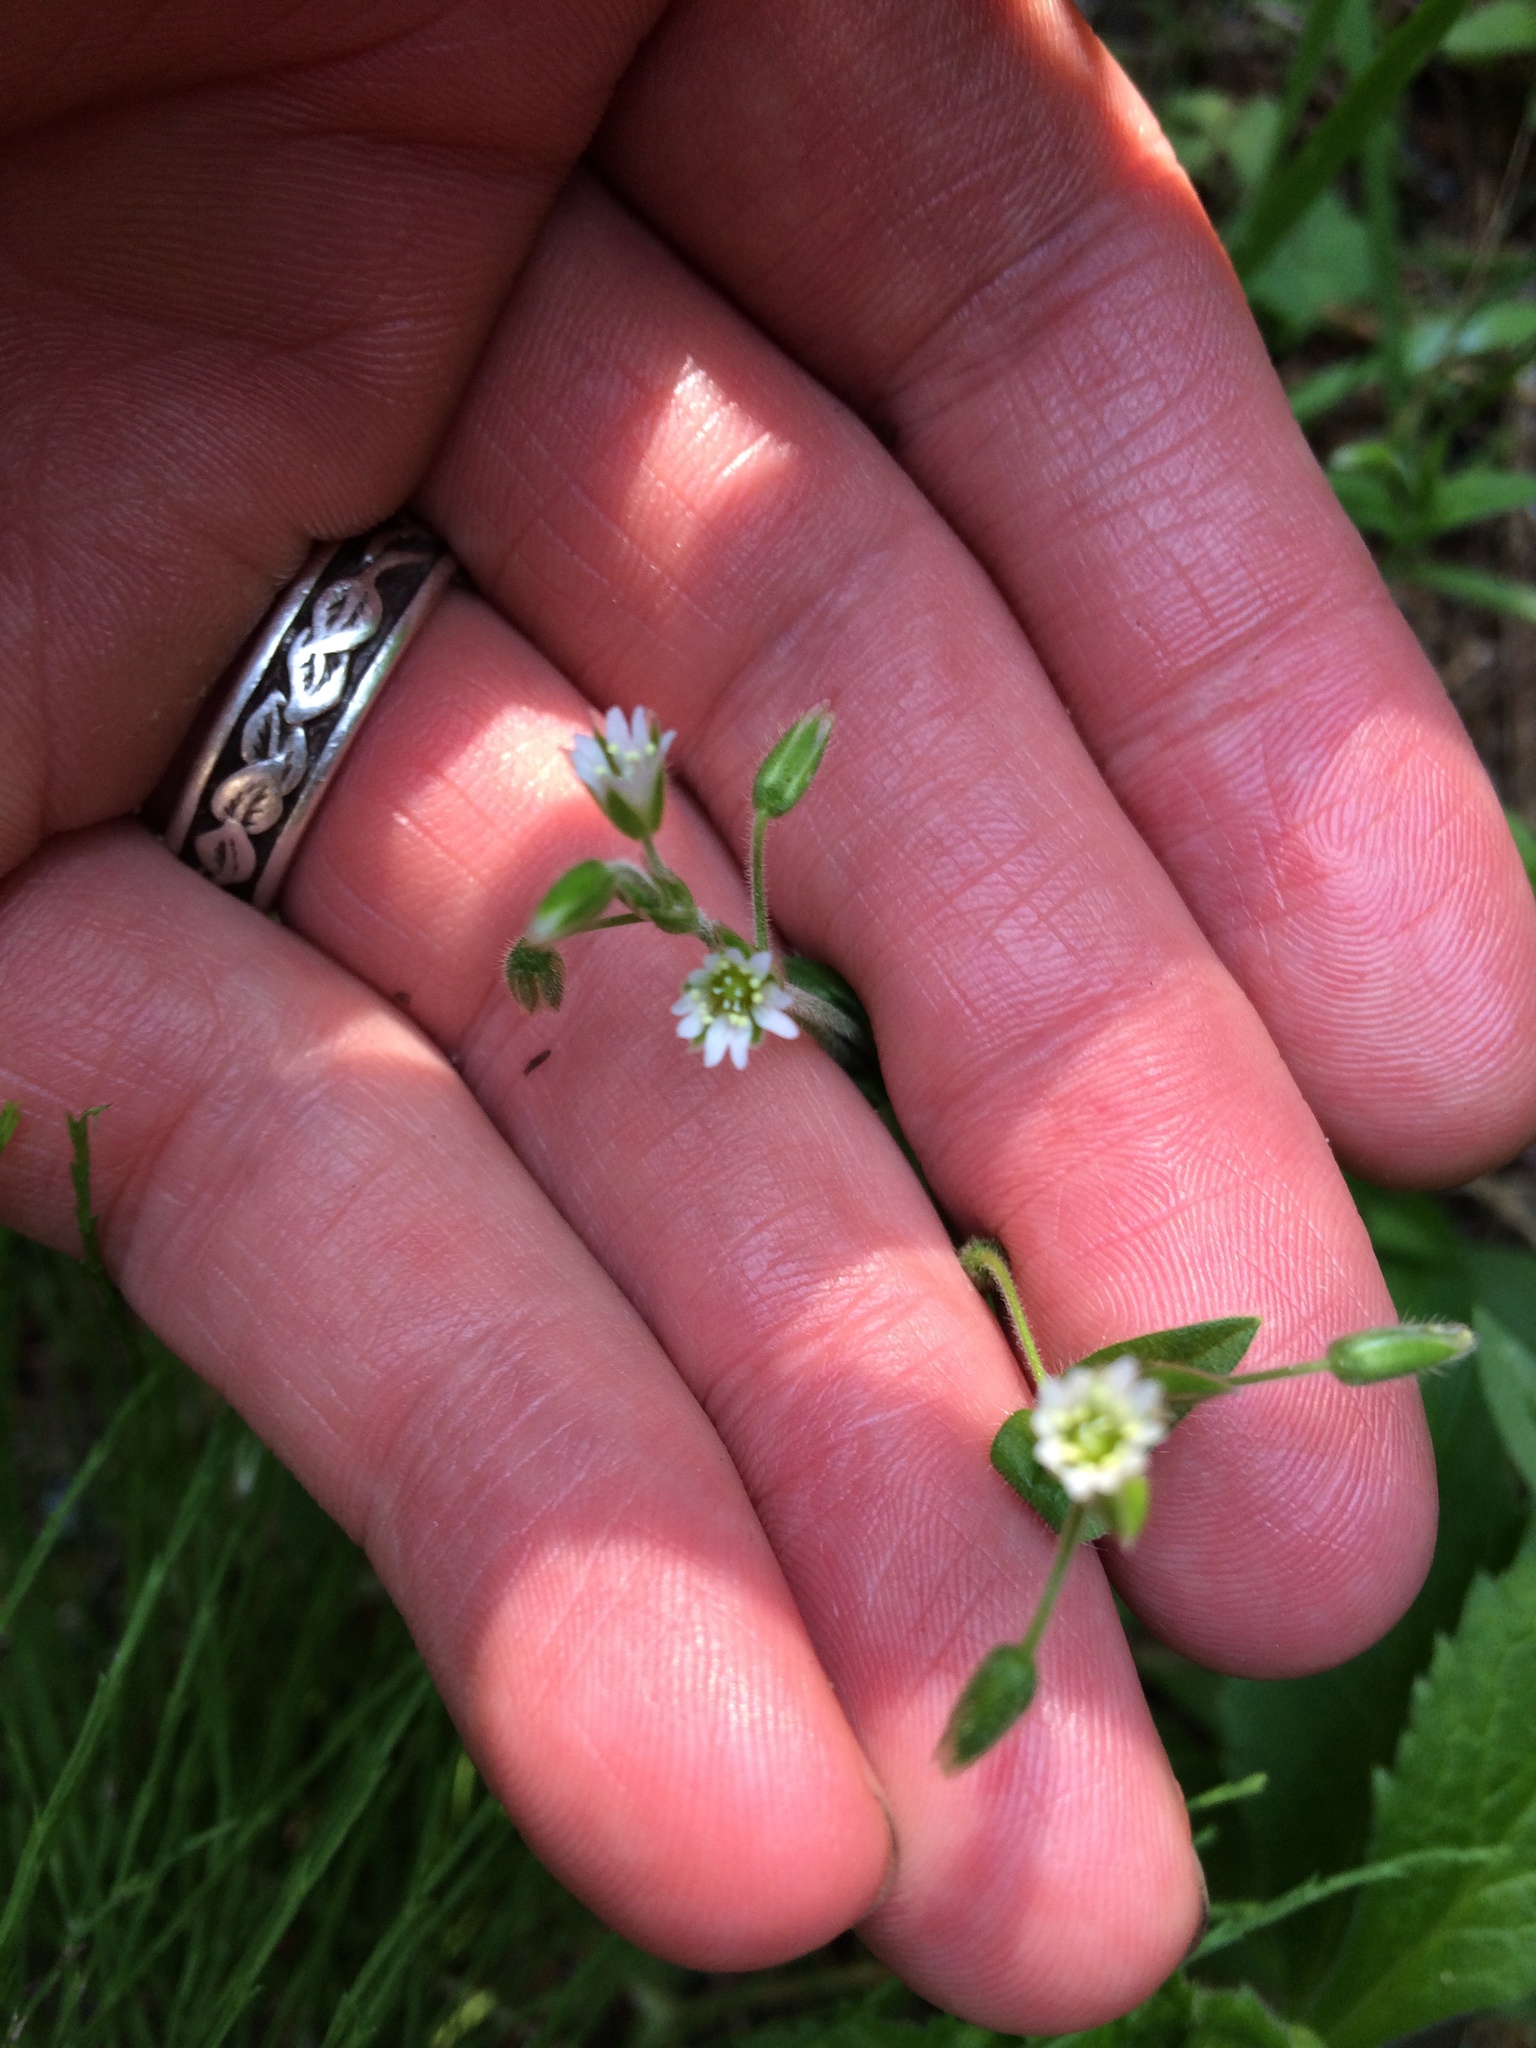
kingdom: Plantae
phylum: Tracheophyta
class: Magnoliopsida
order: Caryophyllales
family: Caryophyllaceae
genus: Stellaria
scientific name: Stellaria media
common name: Common chickweed
